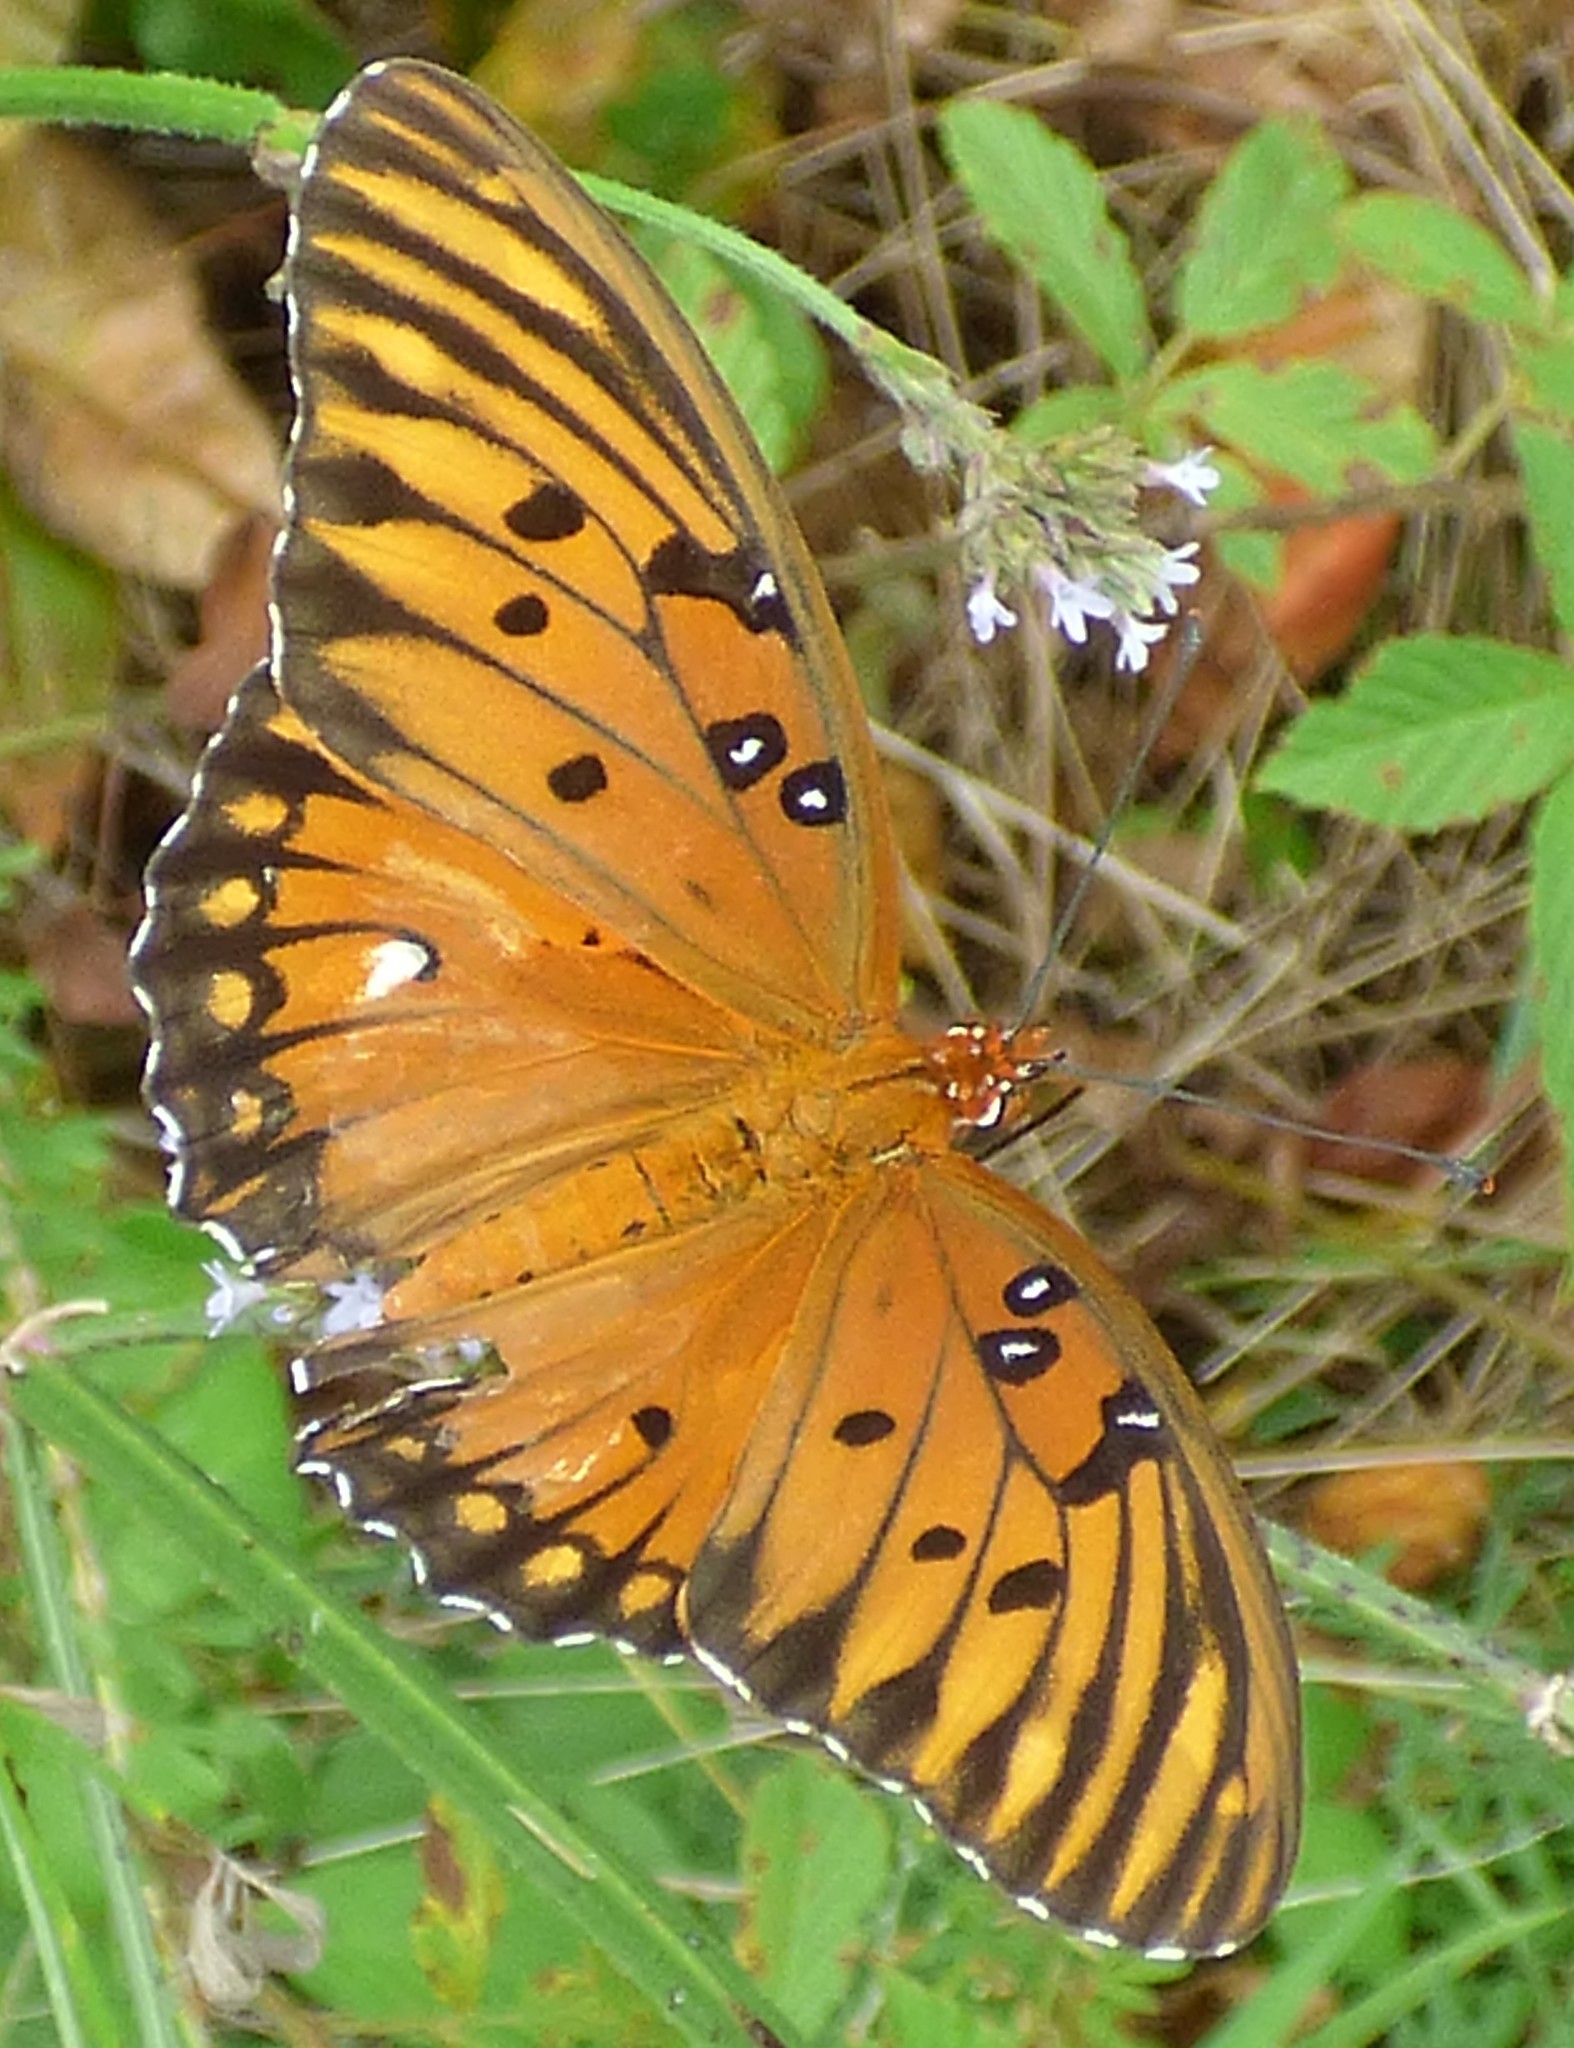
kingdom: Animalia
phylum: Arthropoda
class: Insecta
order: Lepidoptera
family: Nymphalidae
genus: Dione
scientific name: Dione vanillae
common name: Gulf fritillary
